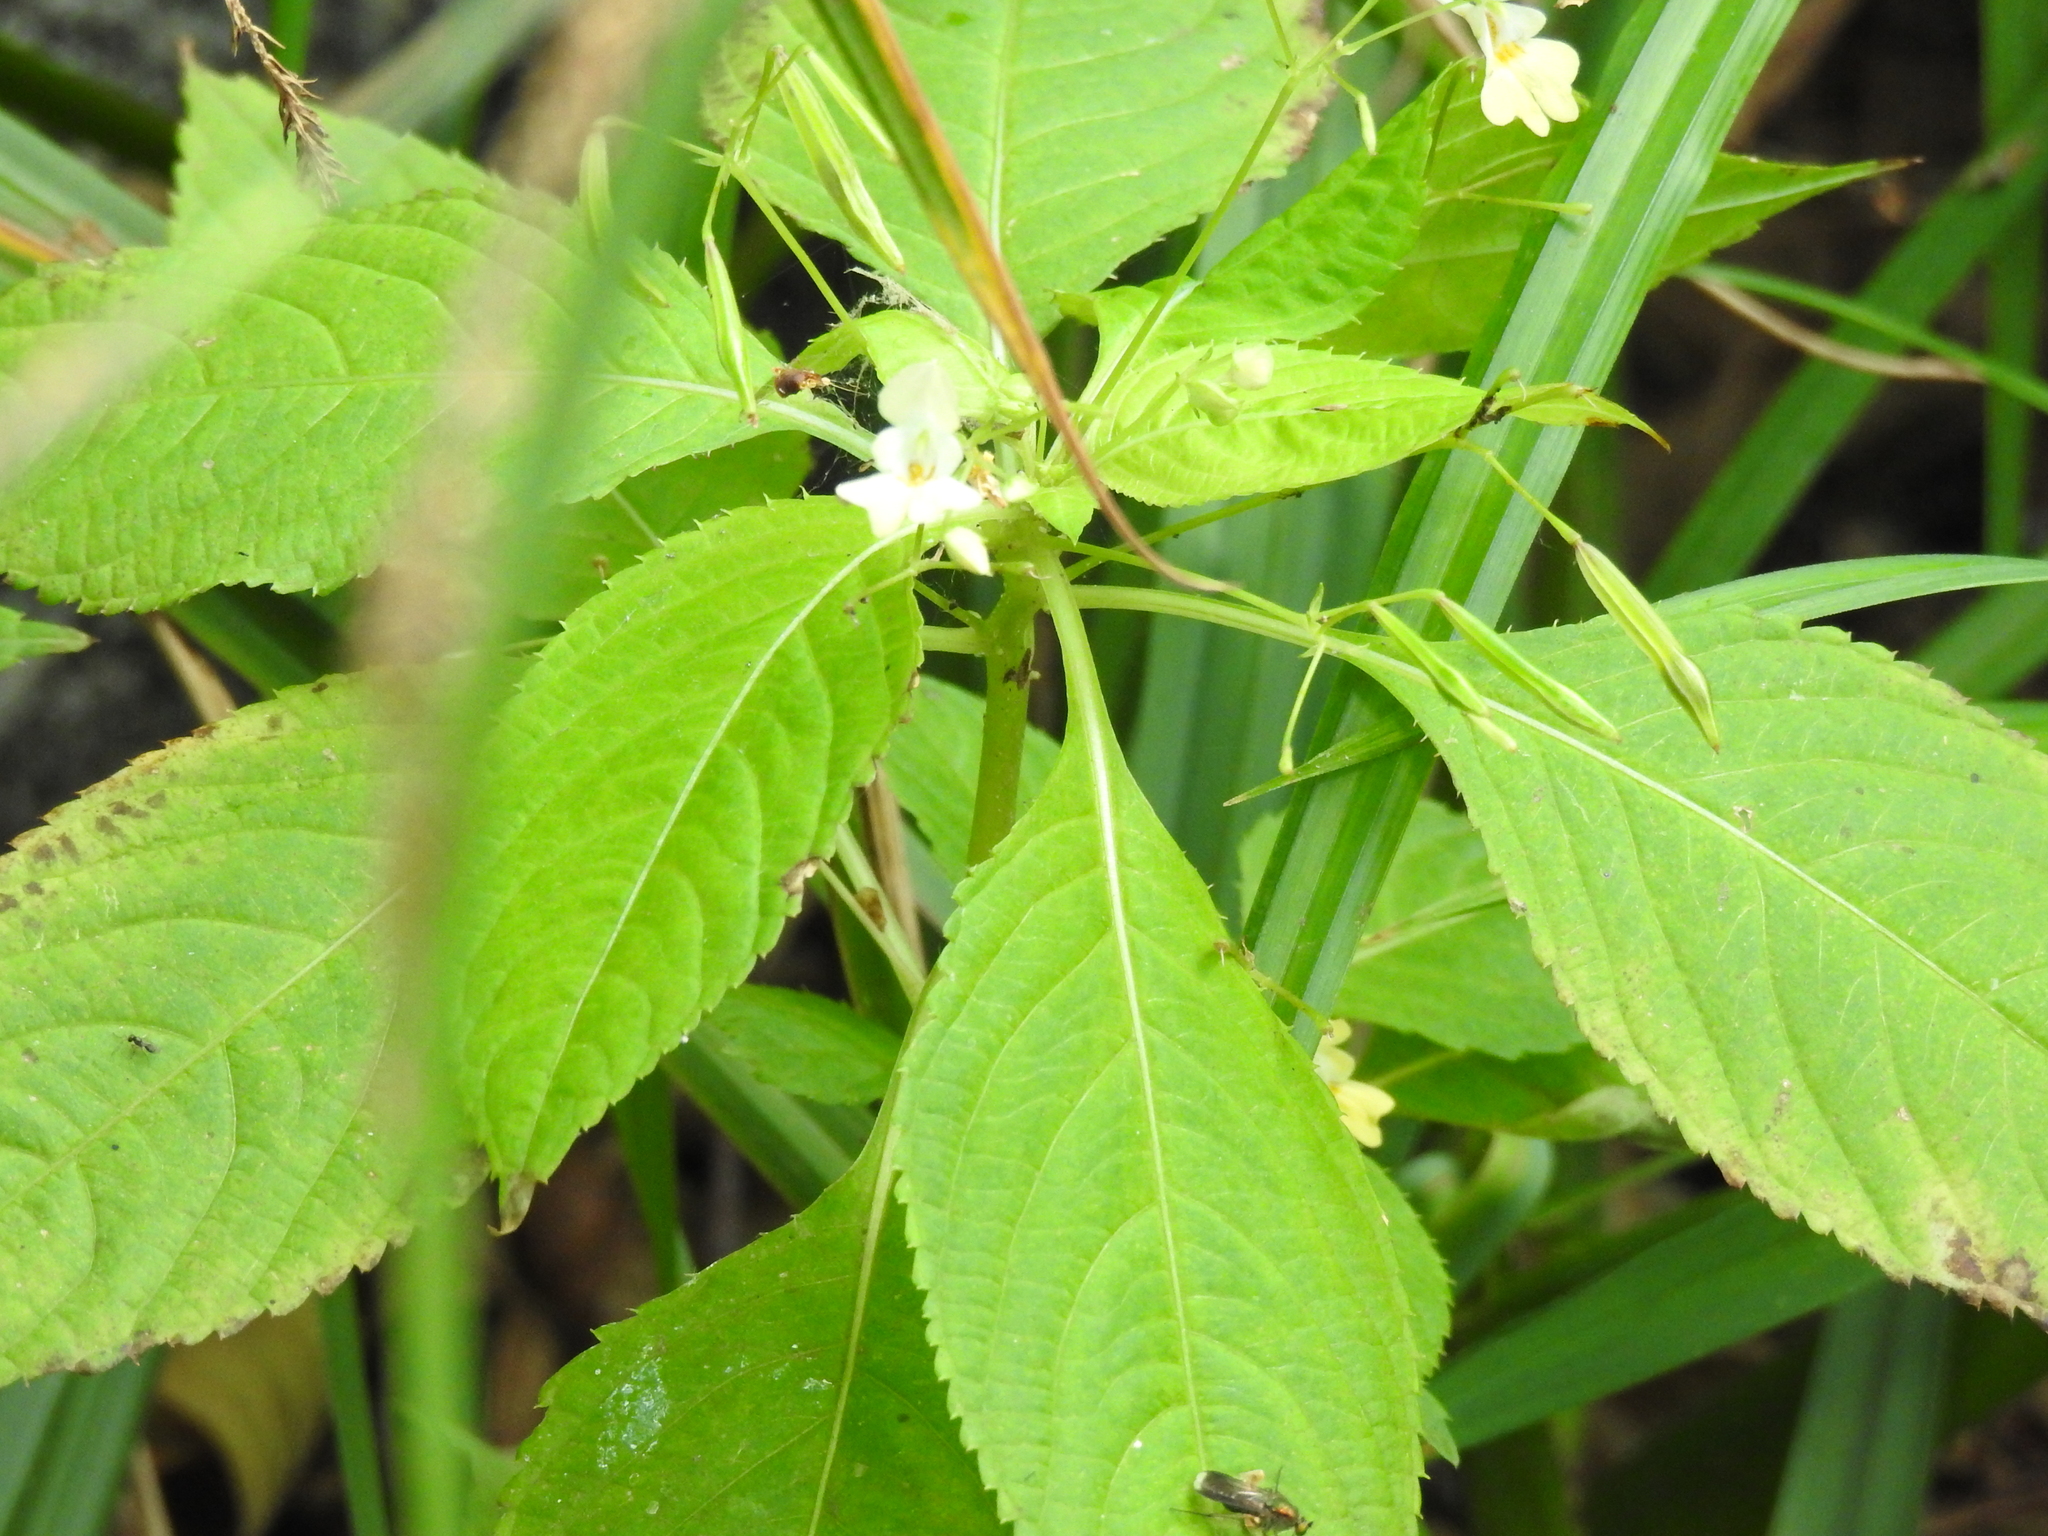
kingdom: Plantae
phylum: Tracheophyta
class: Magnoliopsida
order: Ericales
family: Balsaminaceae
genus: Impatiens
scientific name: Impatiens parviflora
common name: Small balsam
